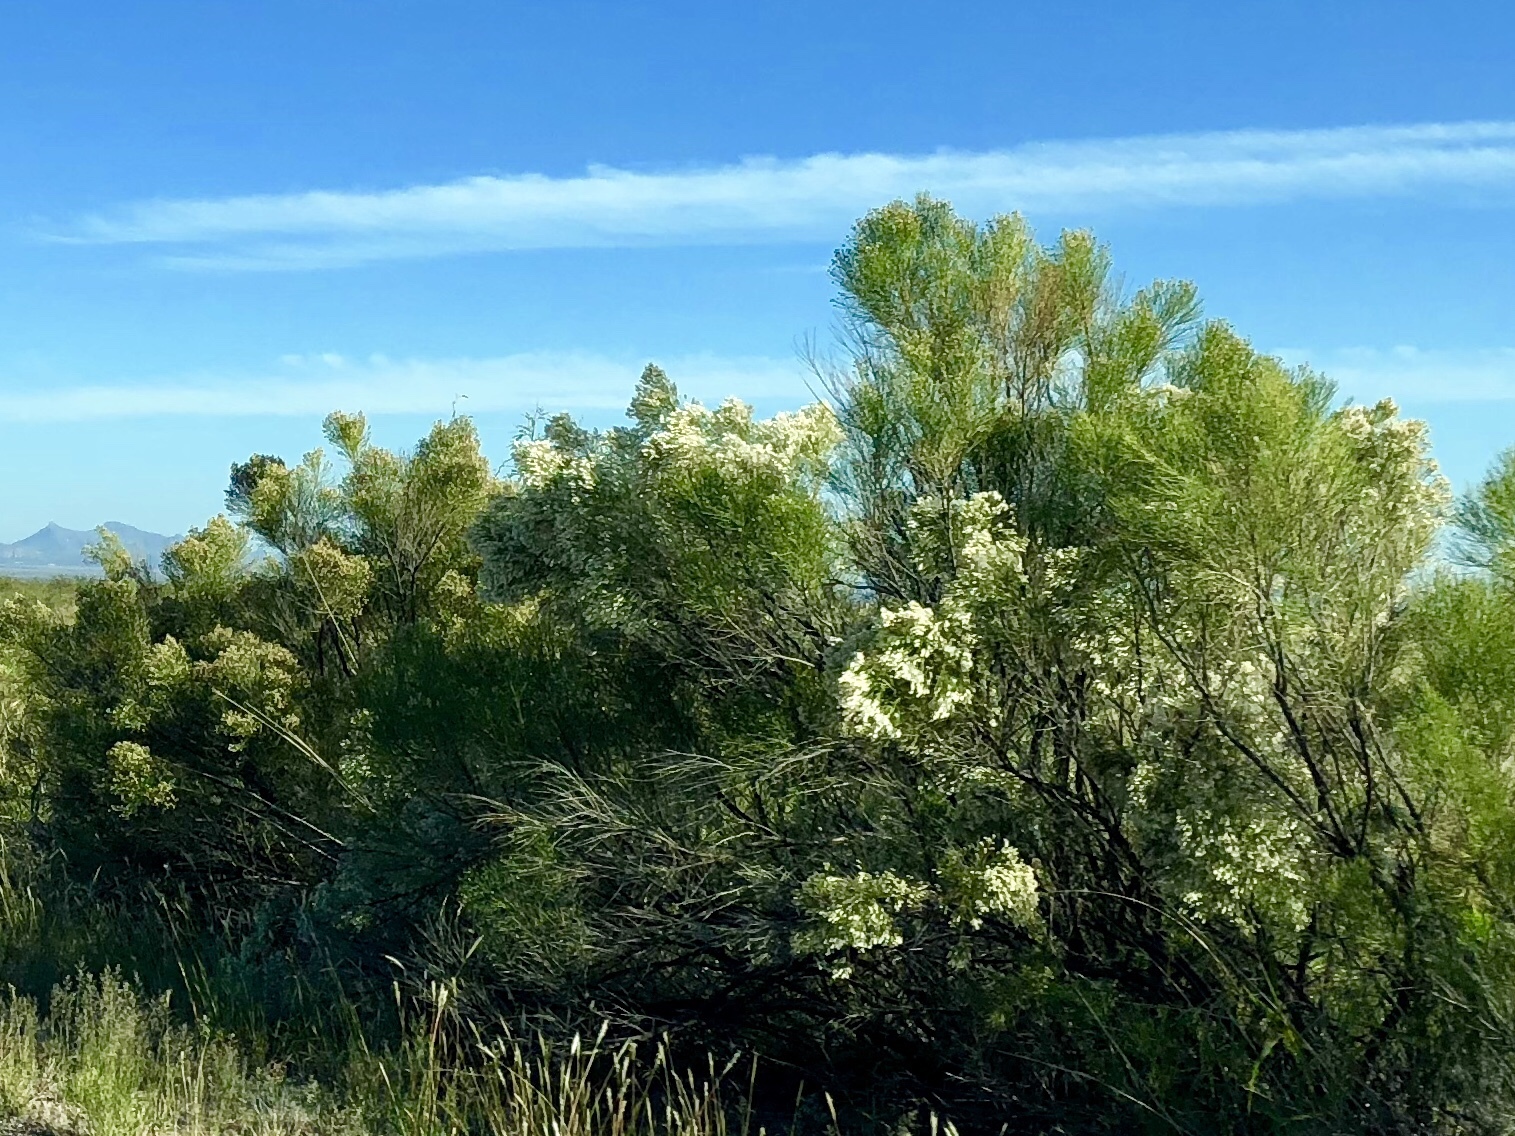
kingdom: Plantae
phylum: Tracheophyta
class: Magnoliopsida
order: Asterales
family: Asteraceae
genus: Baccharis
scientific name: Baccharis sarothroides
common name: Desert-broom
